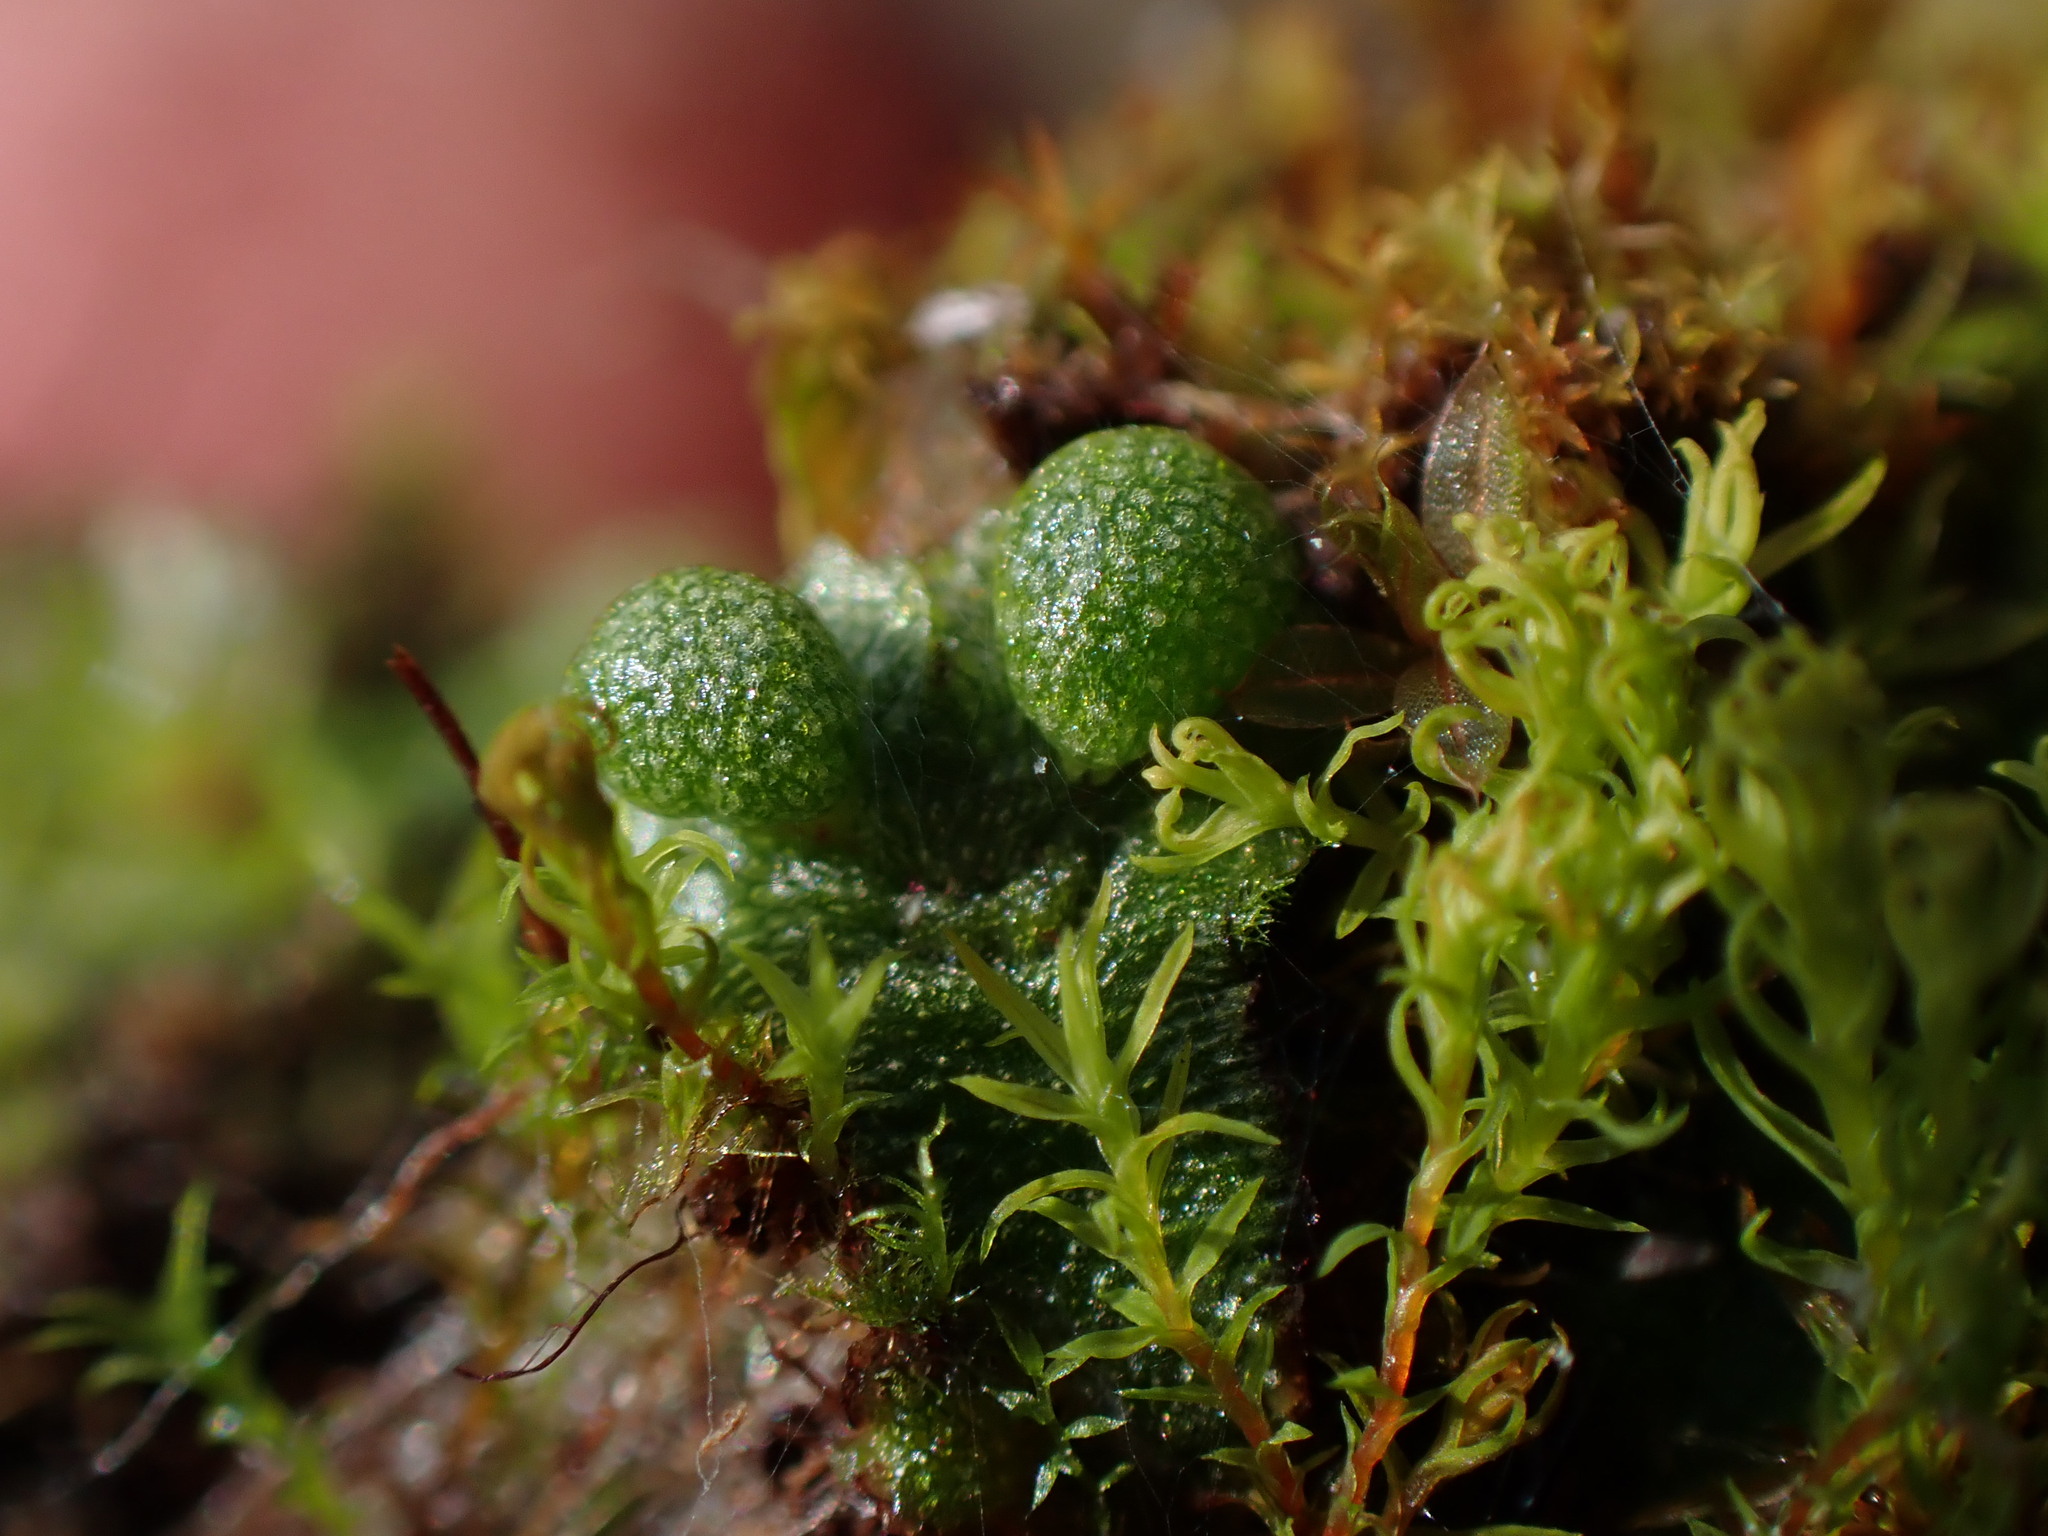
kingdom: Plantae
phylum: Marchantiophyta
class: Marchantiopsida
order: Marchantiales
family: Aytoniaceae
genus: Mannia
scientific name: Mannia gracilis
